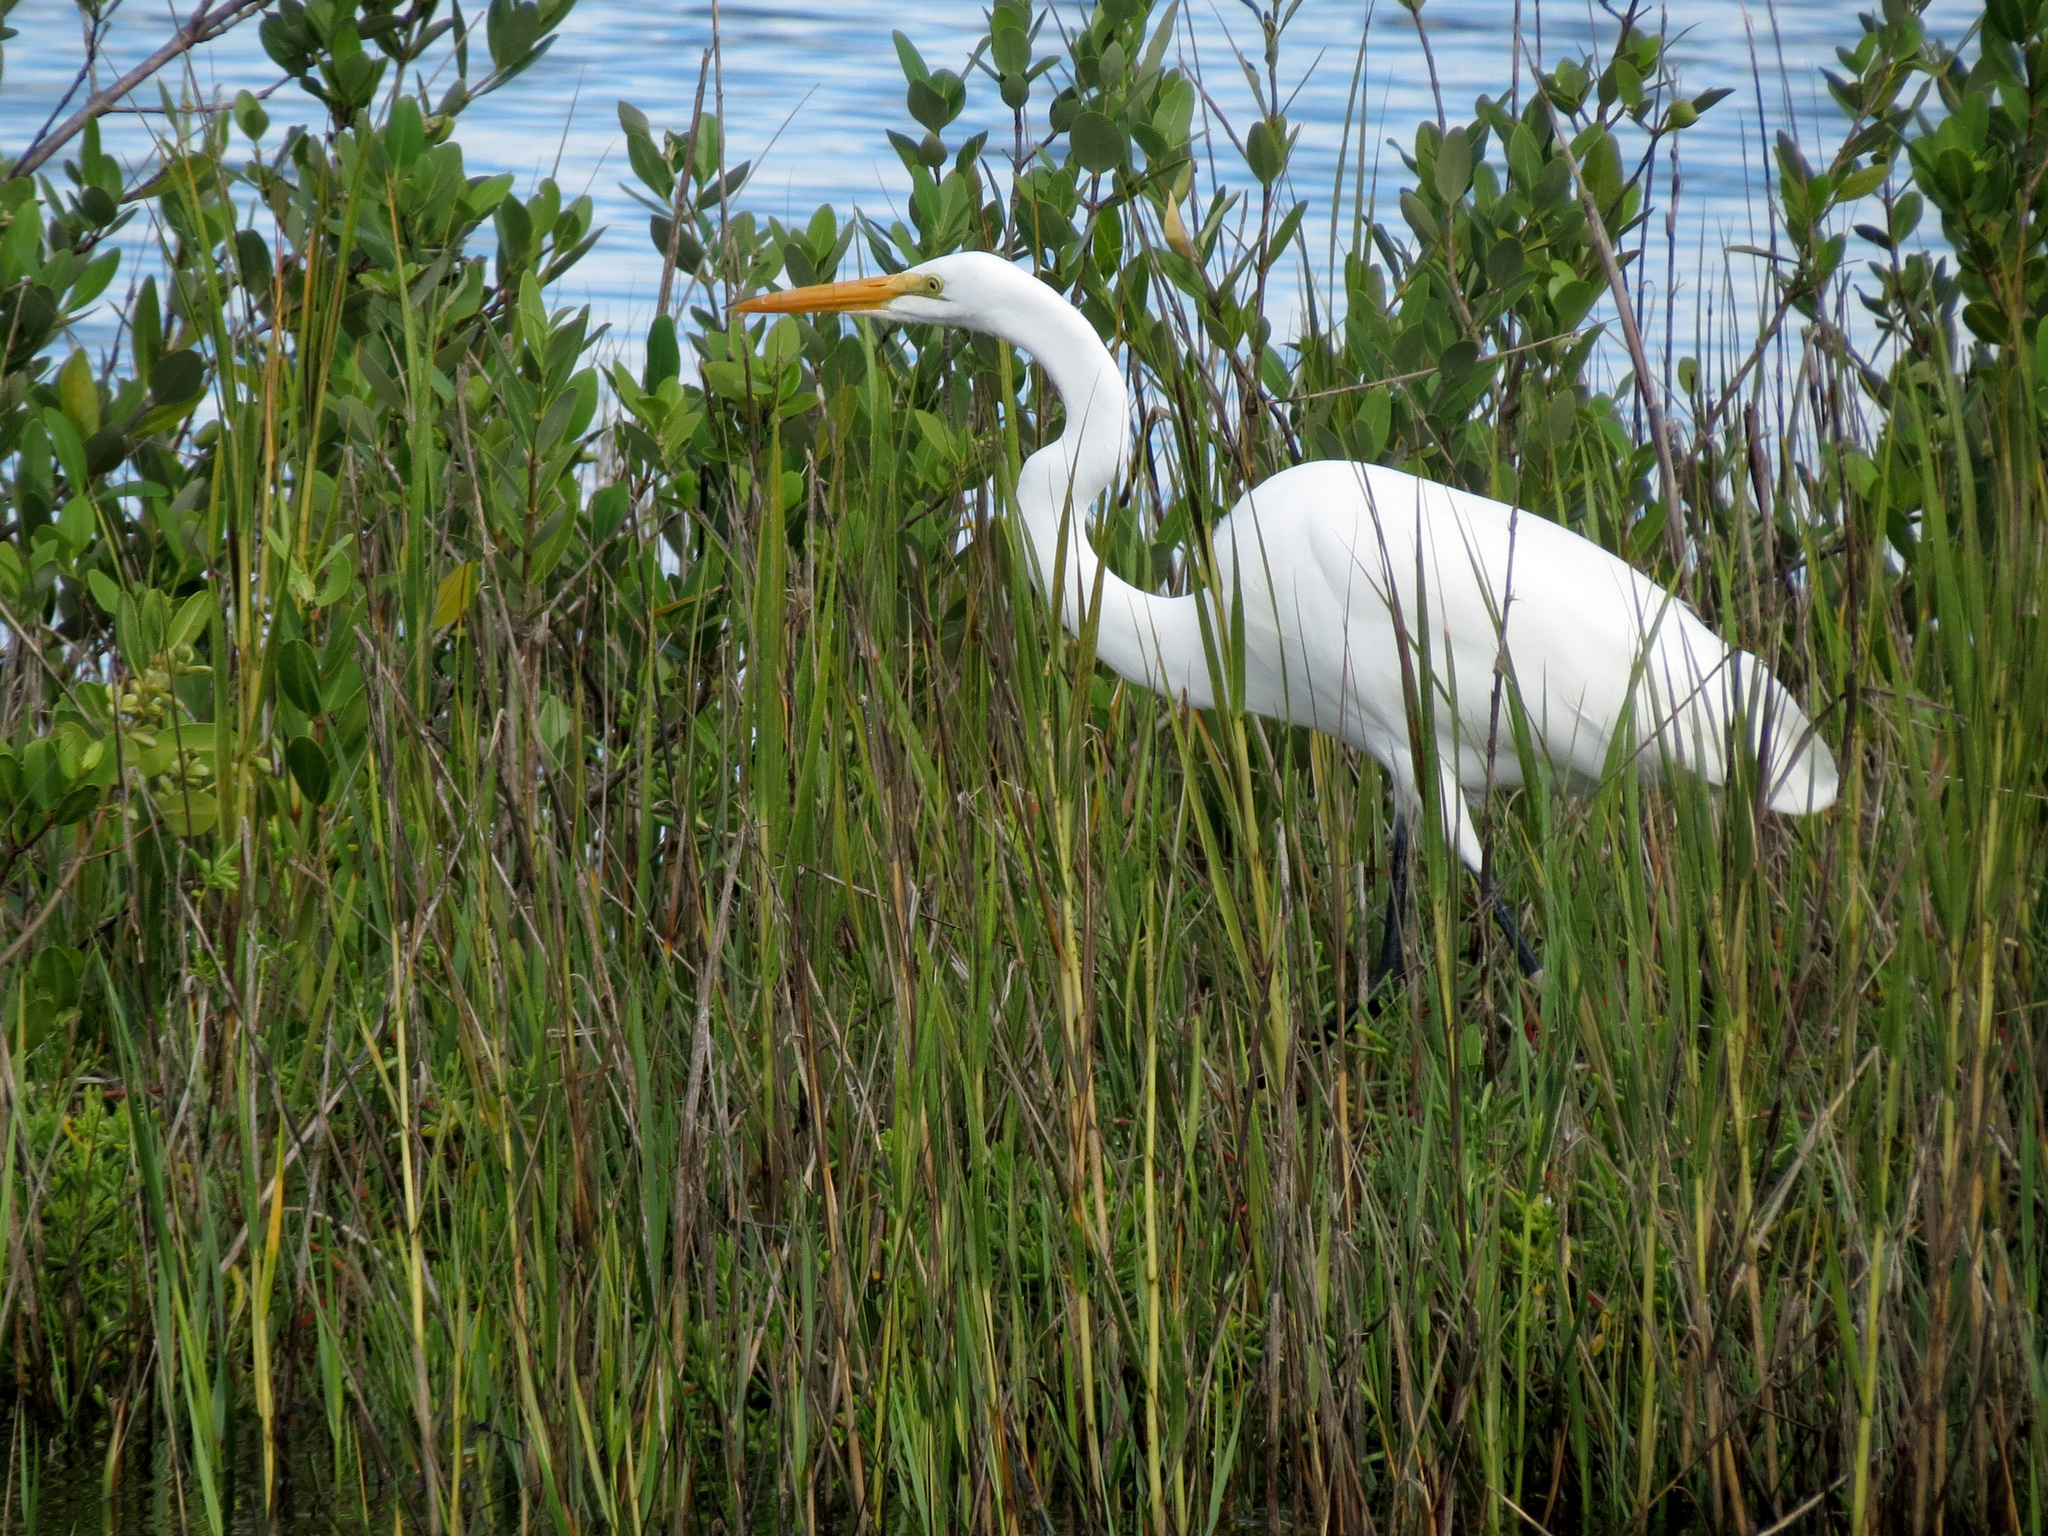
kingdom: Animalia
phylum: Chordata
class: Aves
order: Pelecaniformes
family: Ardeidae
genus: Ardea
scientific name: Ardea alba
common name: Great egret
